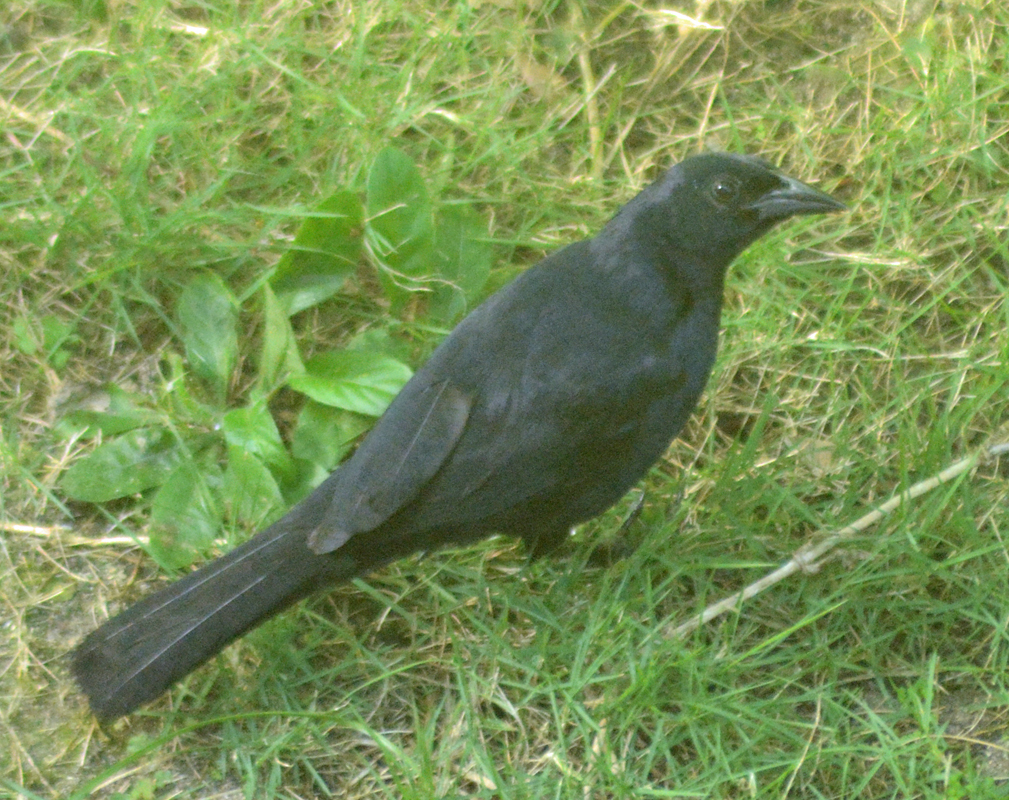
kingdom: Animalia
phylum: Chordata
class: Aves
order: Passeriformes
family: Icteridae
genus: Dives
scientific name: Dives dives
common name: Melodious blackbird
